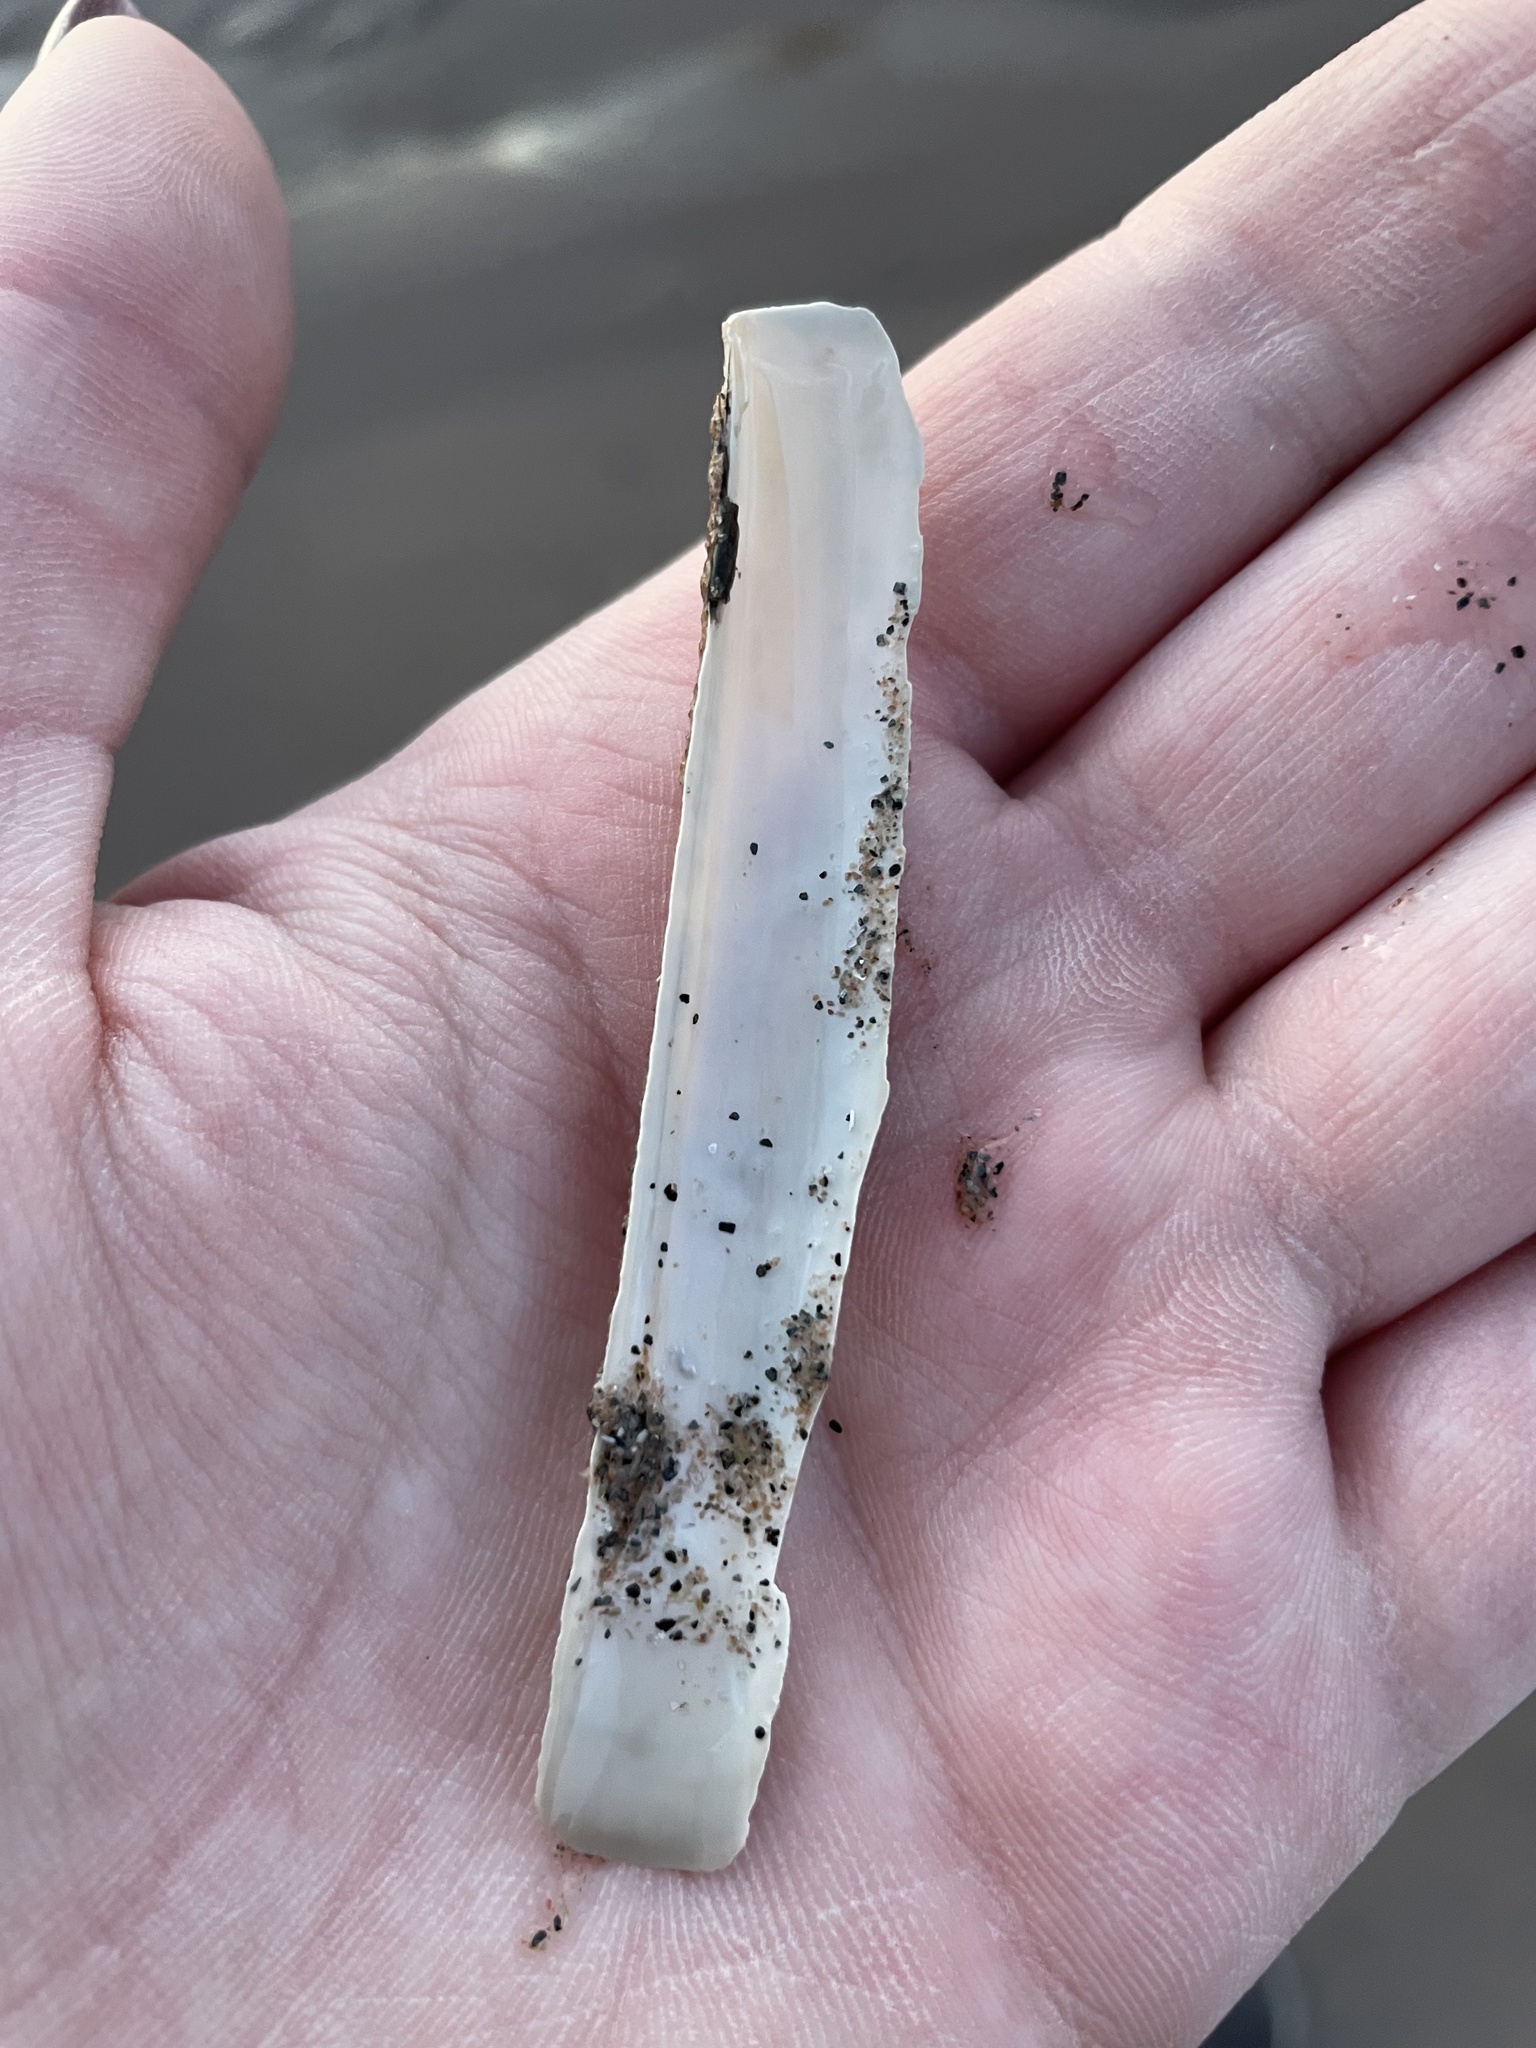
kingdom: Animalia
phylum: Mollusca
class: Bivalvia
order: Adapedonta
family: Pharidae
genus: Ensis
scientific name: Ensis leei
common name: American jack knife clam
